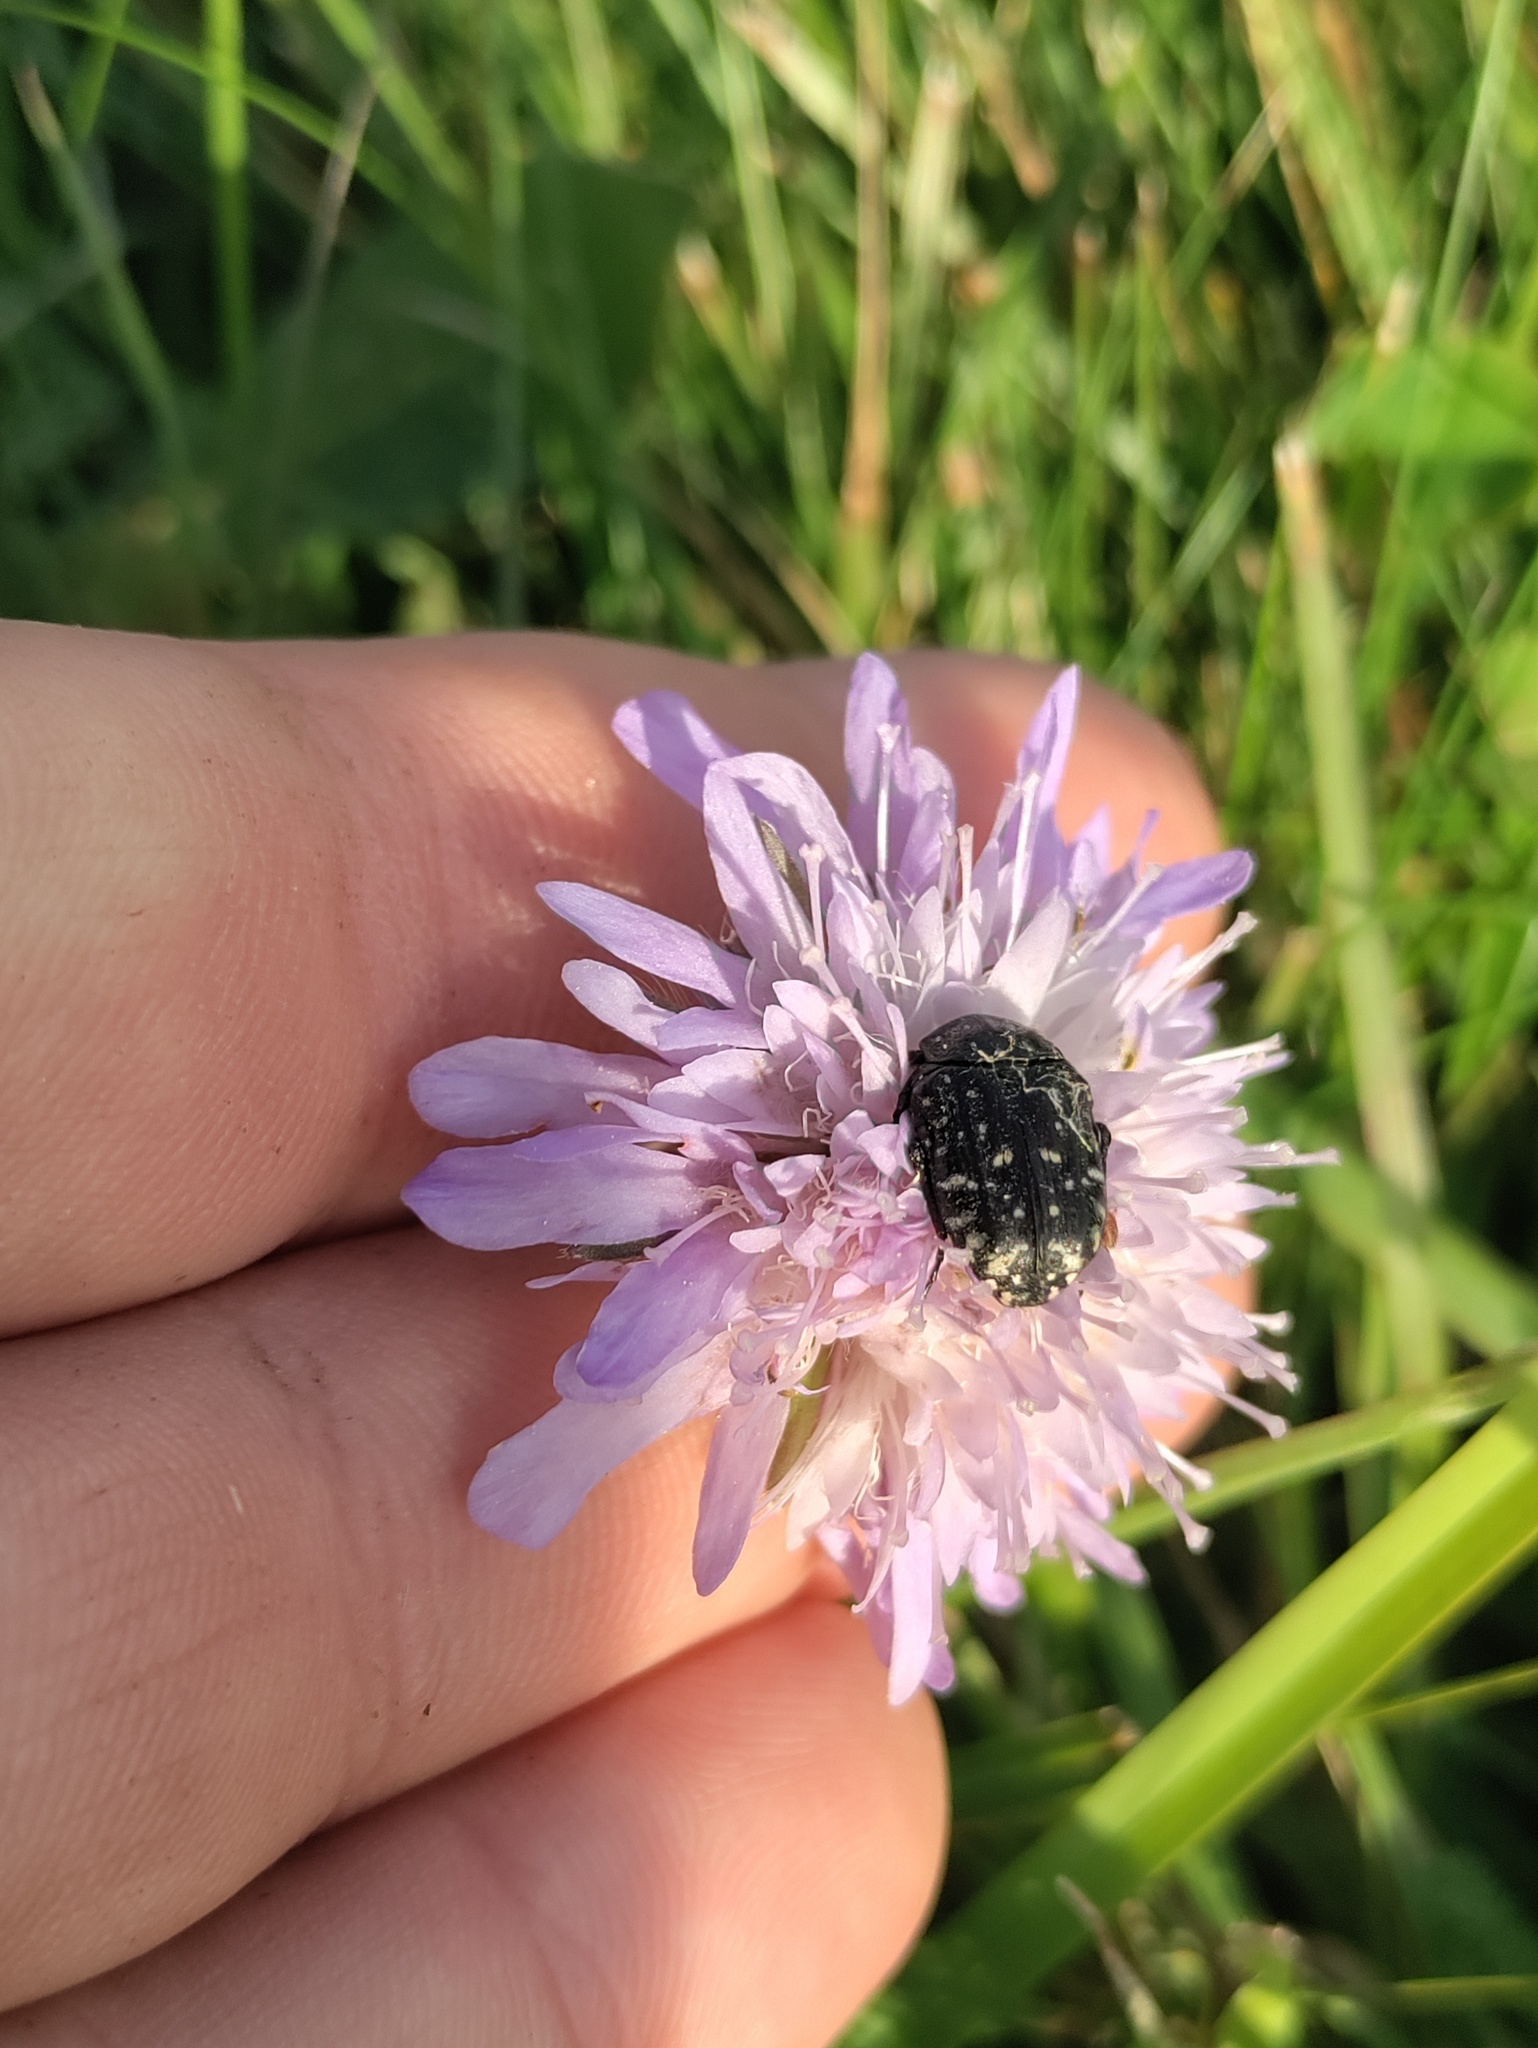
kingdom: Animalia
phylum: Arthropoda
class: Insecta
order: Coleoptera
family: Scarabaeidae
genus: Oxythyrea
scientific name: Oxythyrea funesta
